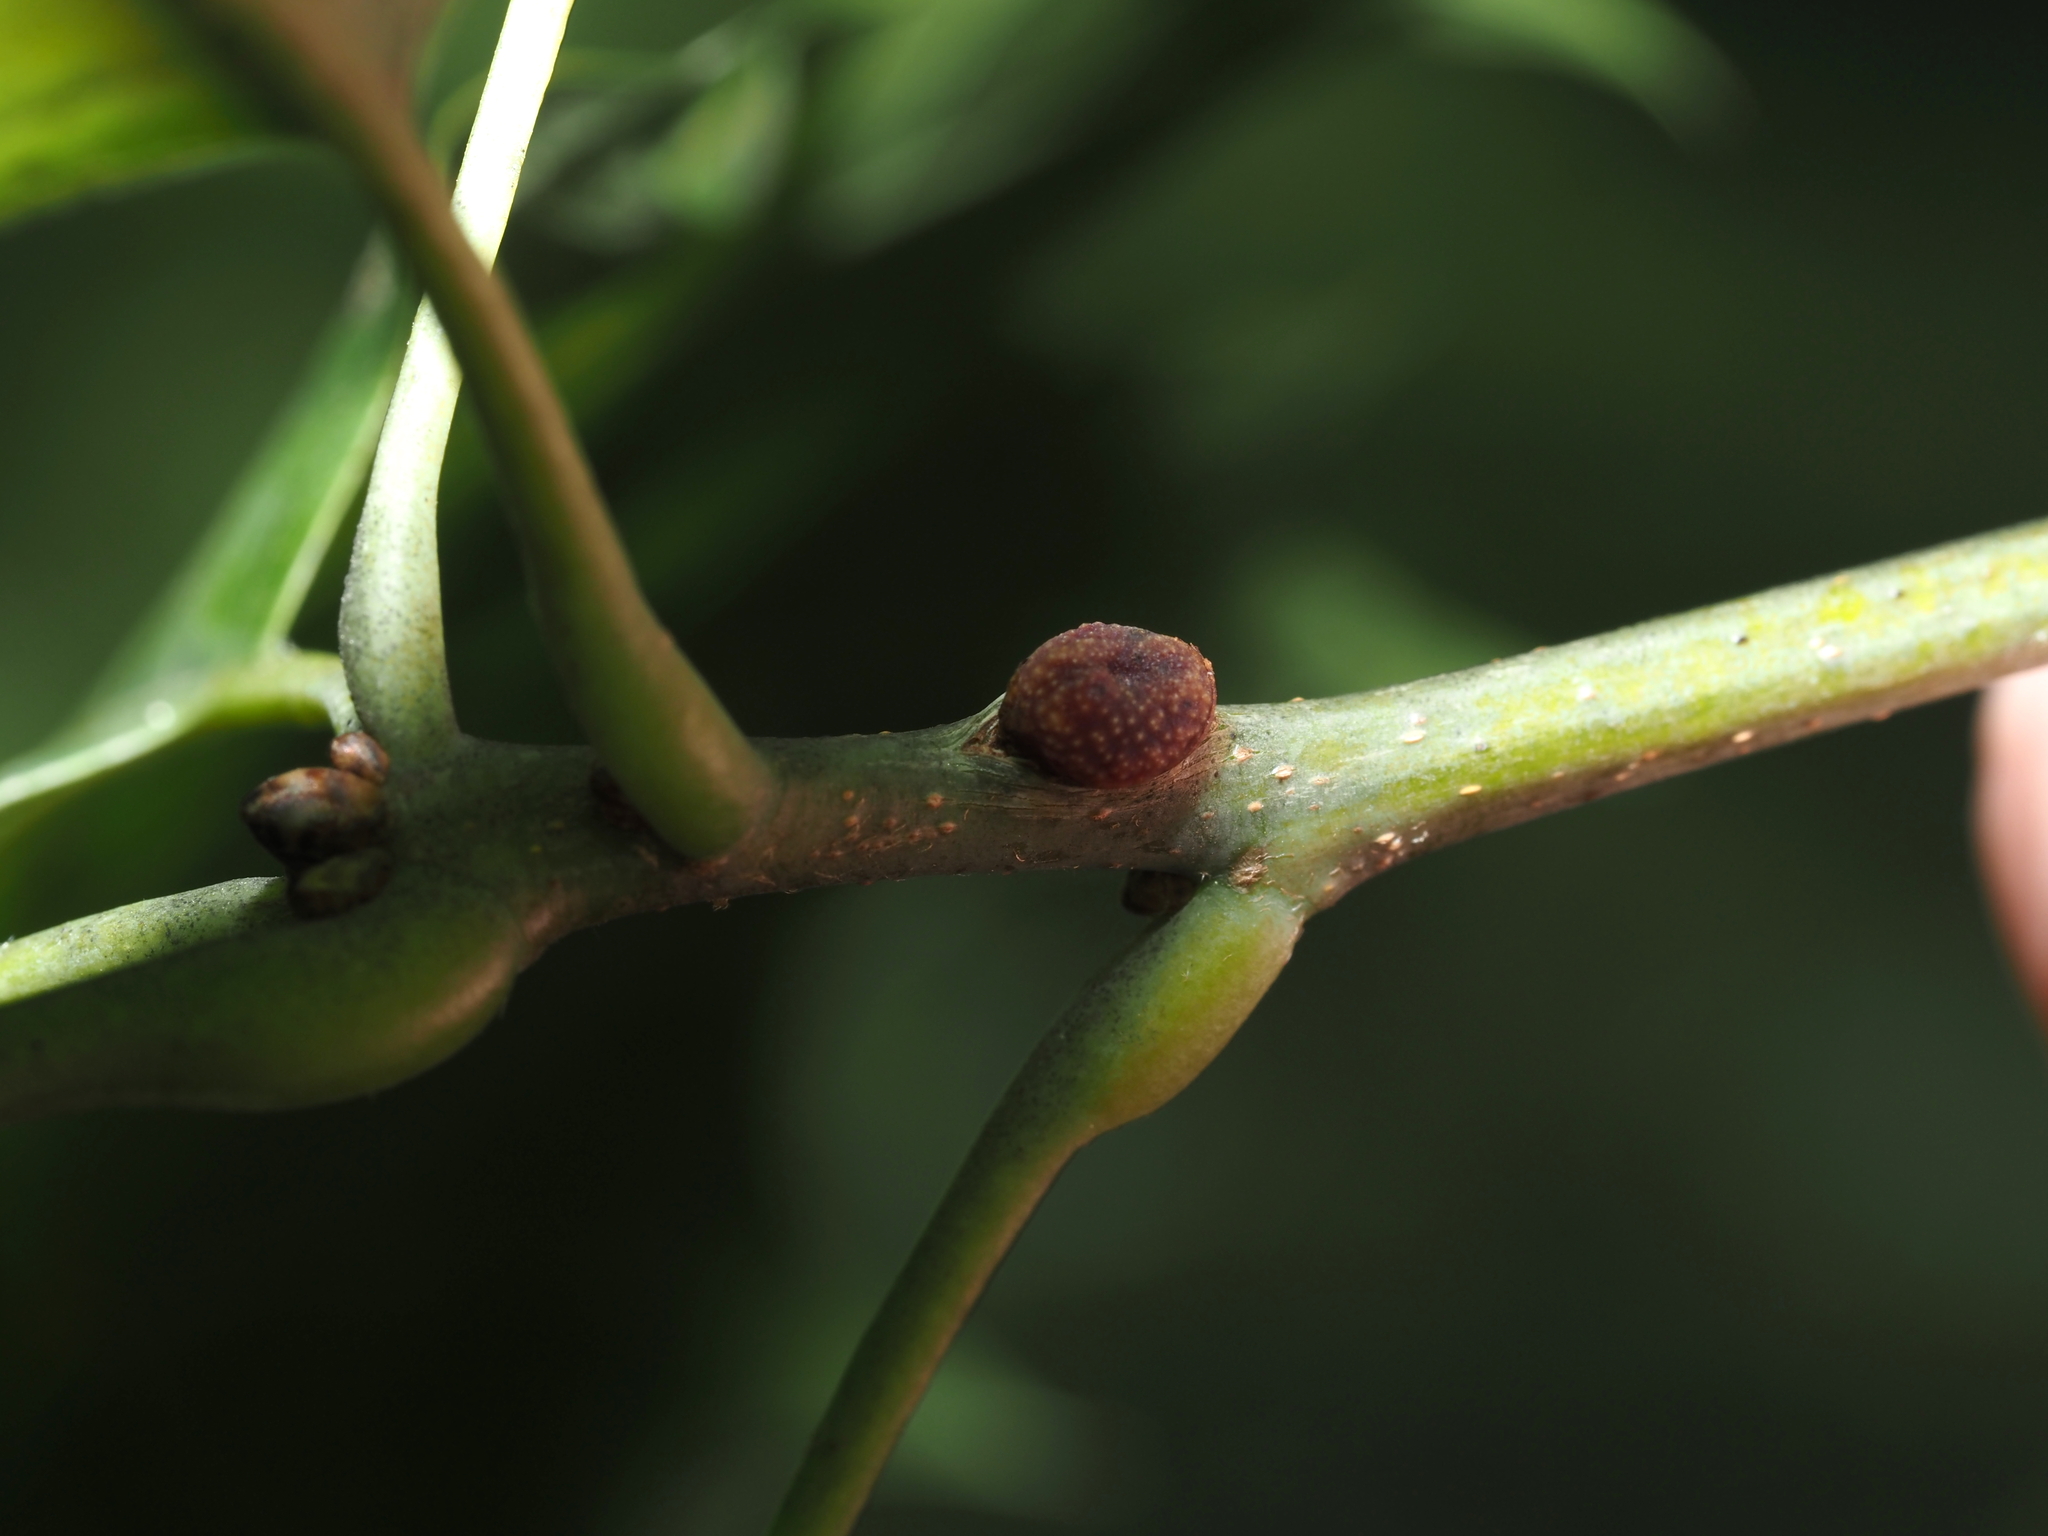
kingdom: Animalia
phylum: Arthropoda
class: Insecta
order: Hymenoptera
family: Cynipidae
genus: Kokkocynips
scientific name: Kokkocynips imbricariae
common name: Banded bullet gall wasp
